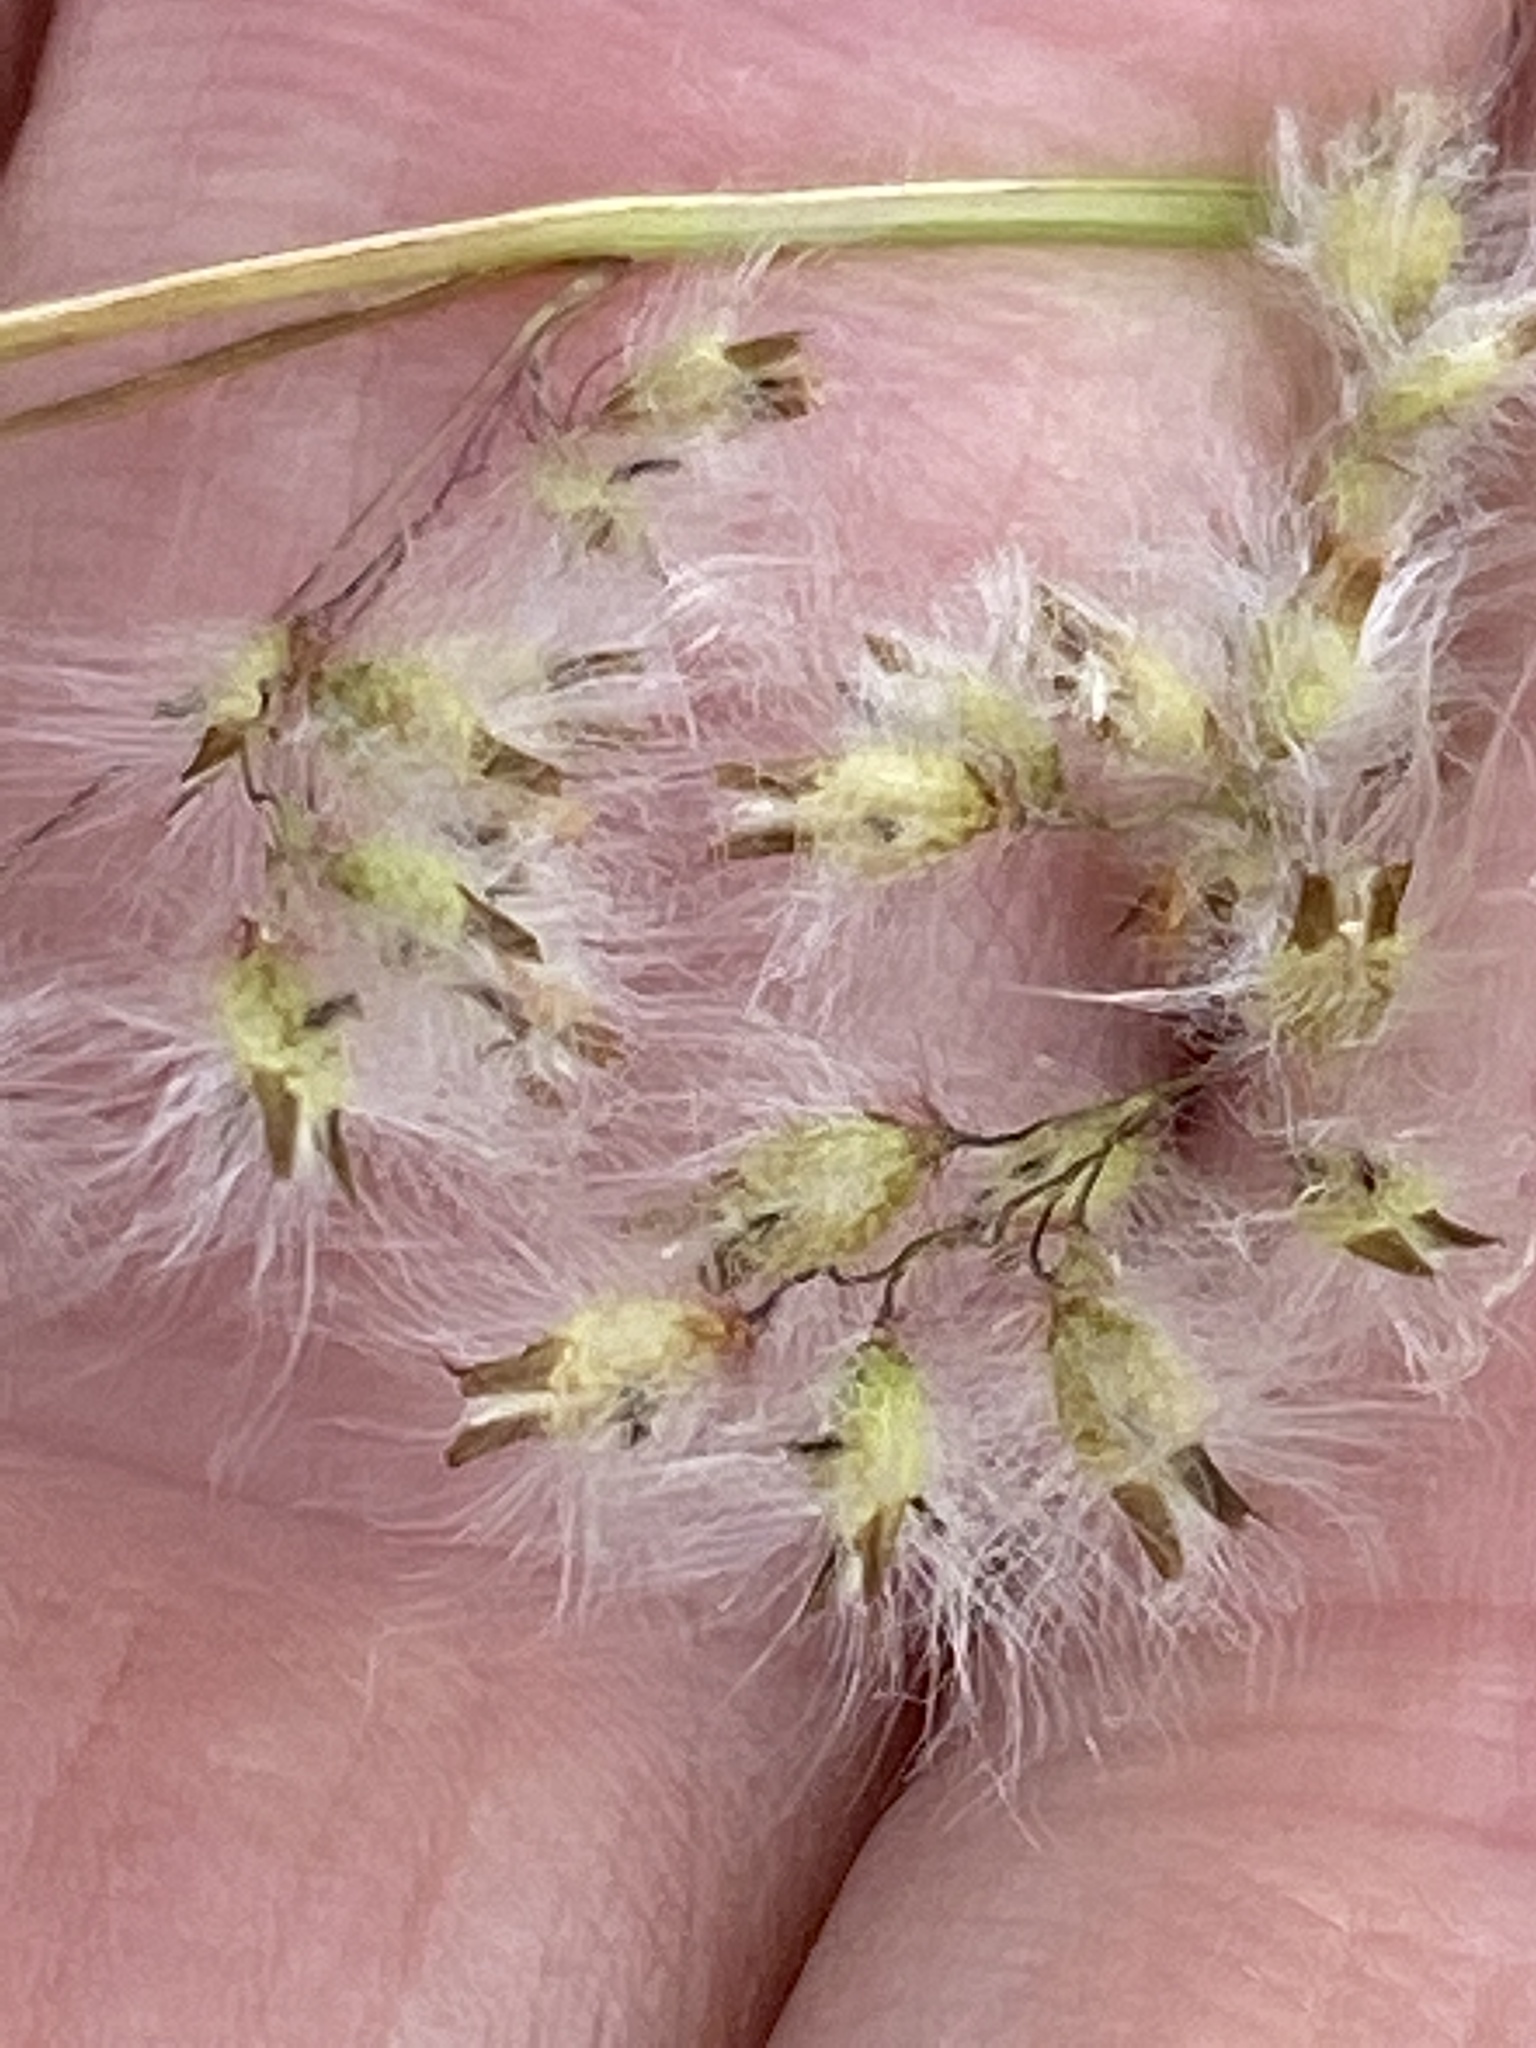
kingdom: Plantae
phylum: Tracheophyta
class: Liliopsida
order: Poales
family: Poaceae
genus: Melinis
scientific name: Melinis repens
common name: Rose natal grass
